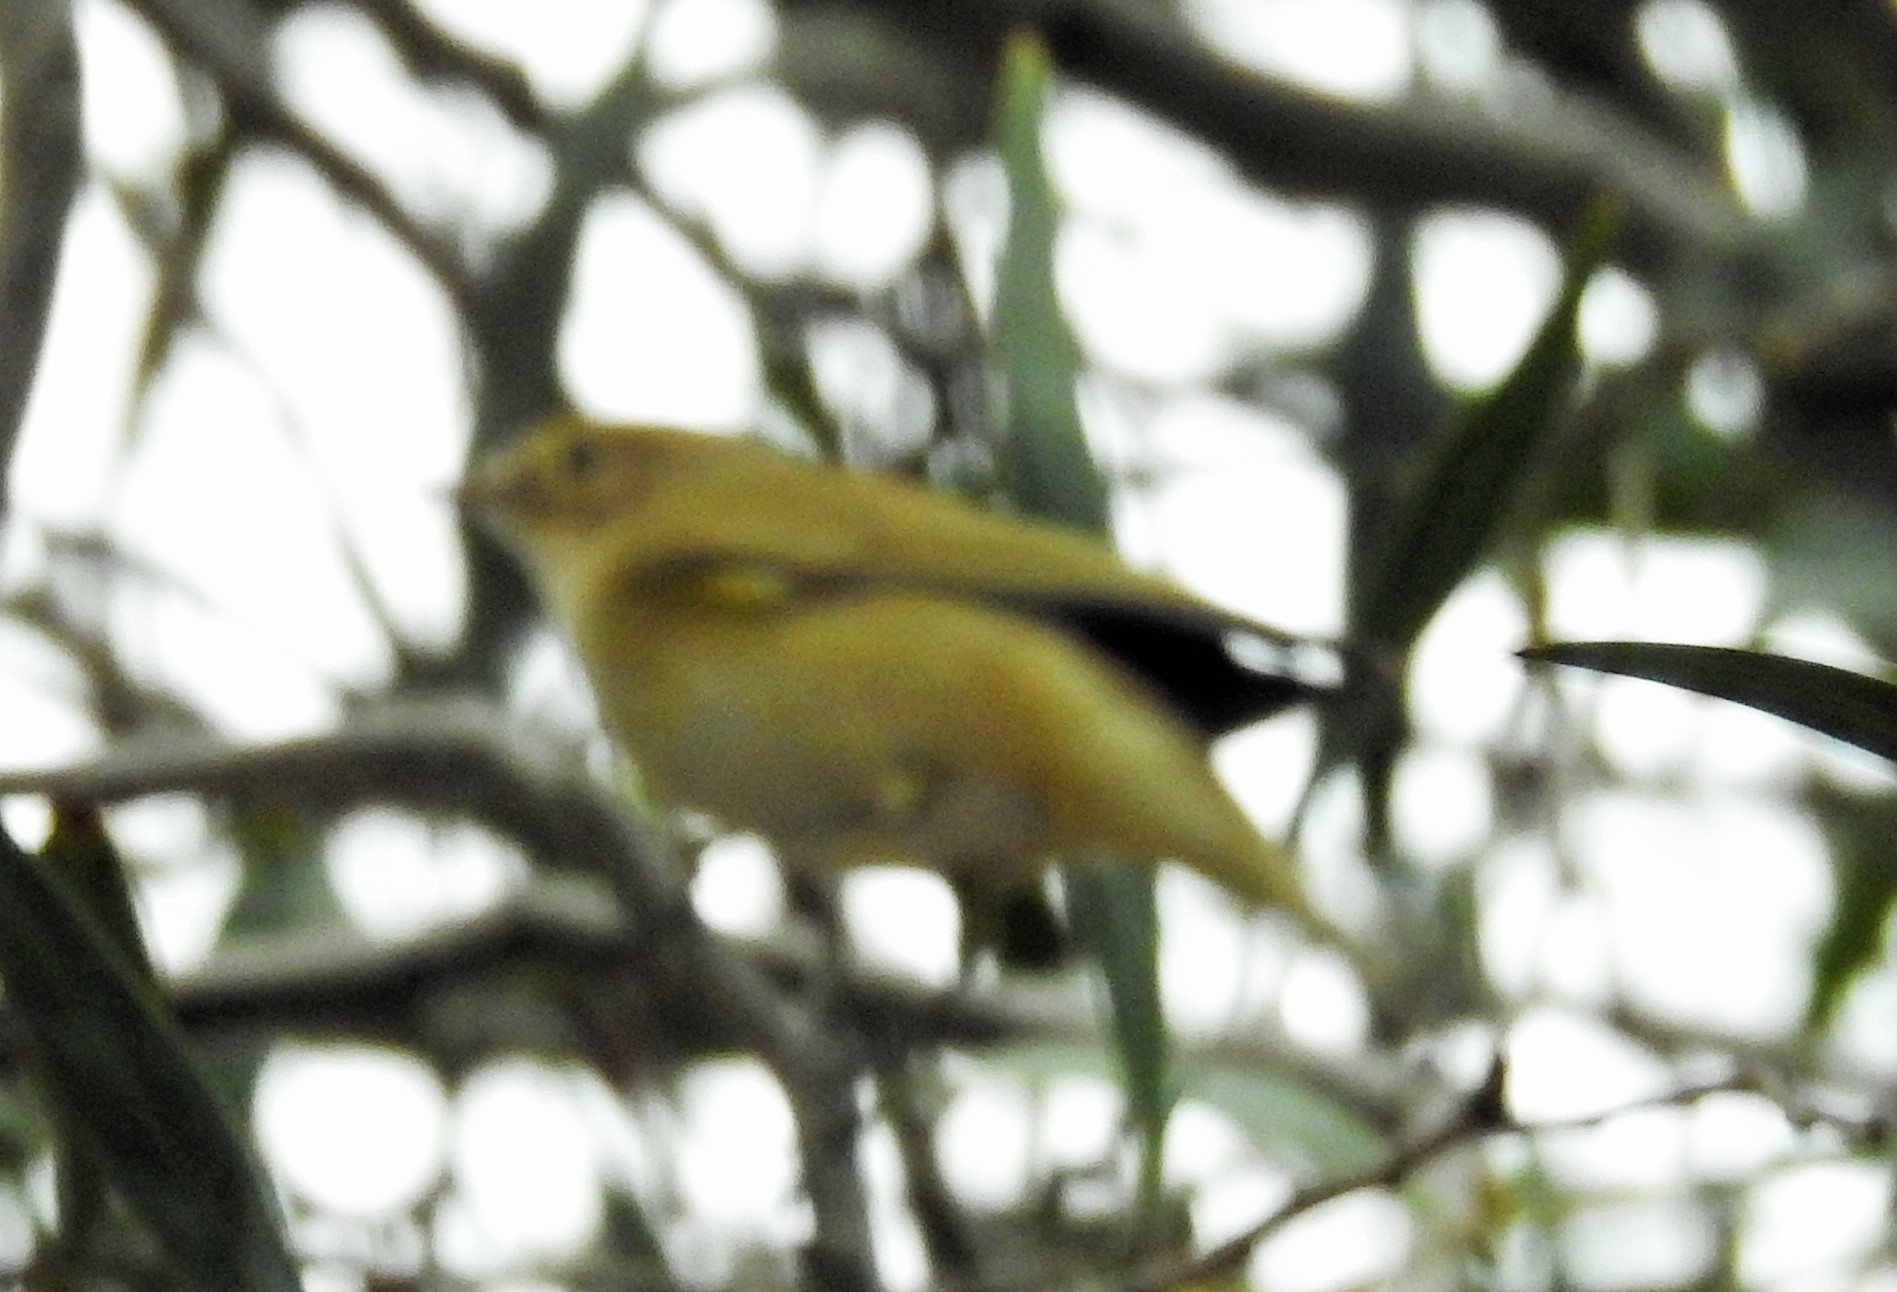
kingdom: Animalia
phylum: Chordata
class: Aves
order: Passeriformes
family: Phylloscopidae
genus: Phylloscopus
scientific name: Phylloscopus collybita
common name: Common chiffchaff
